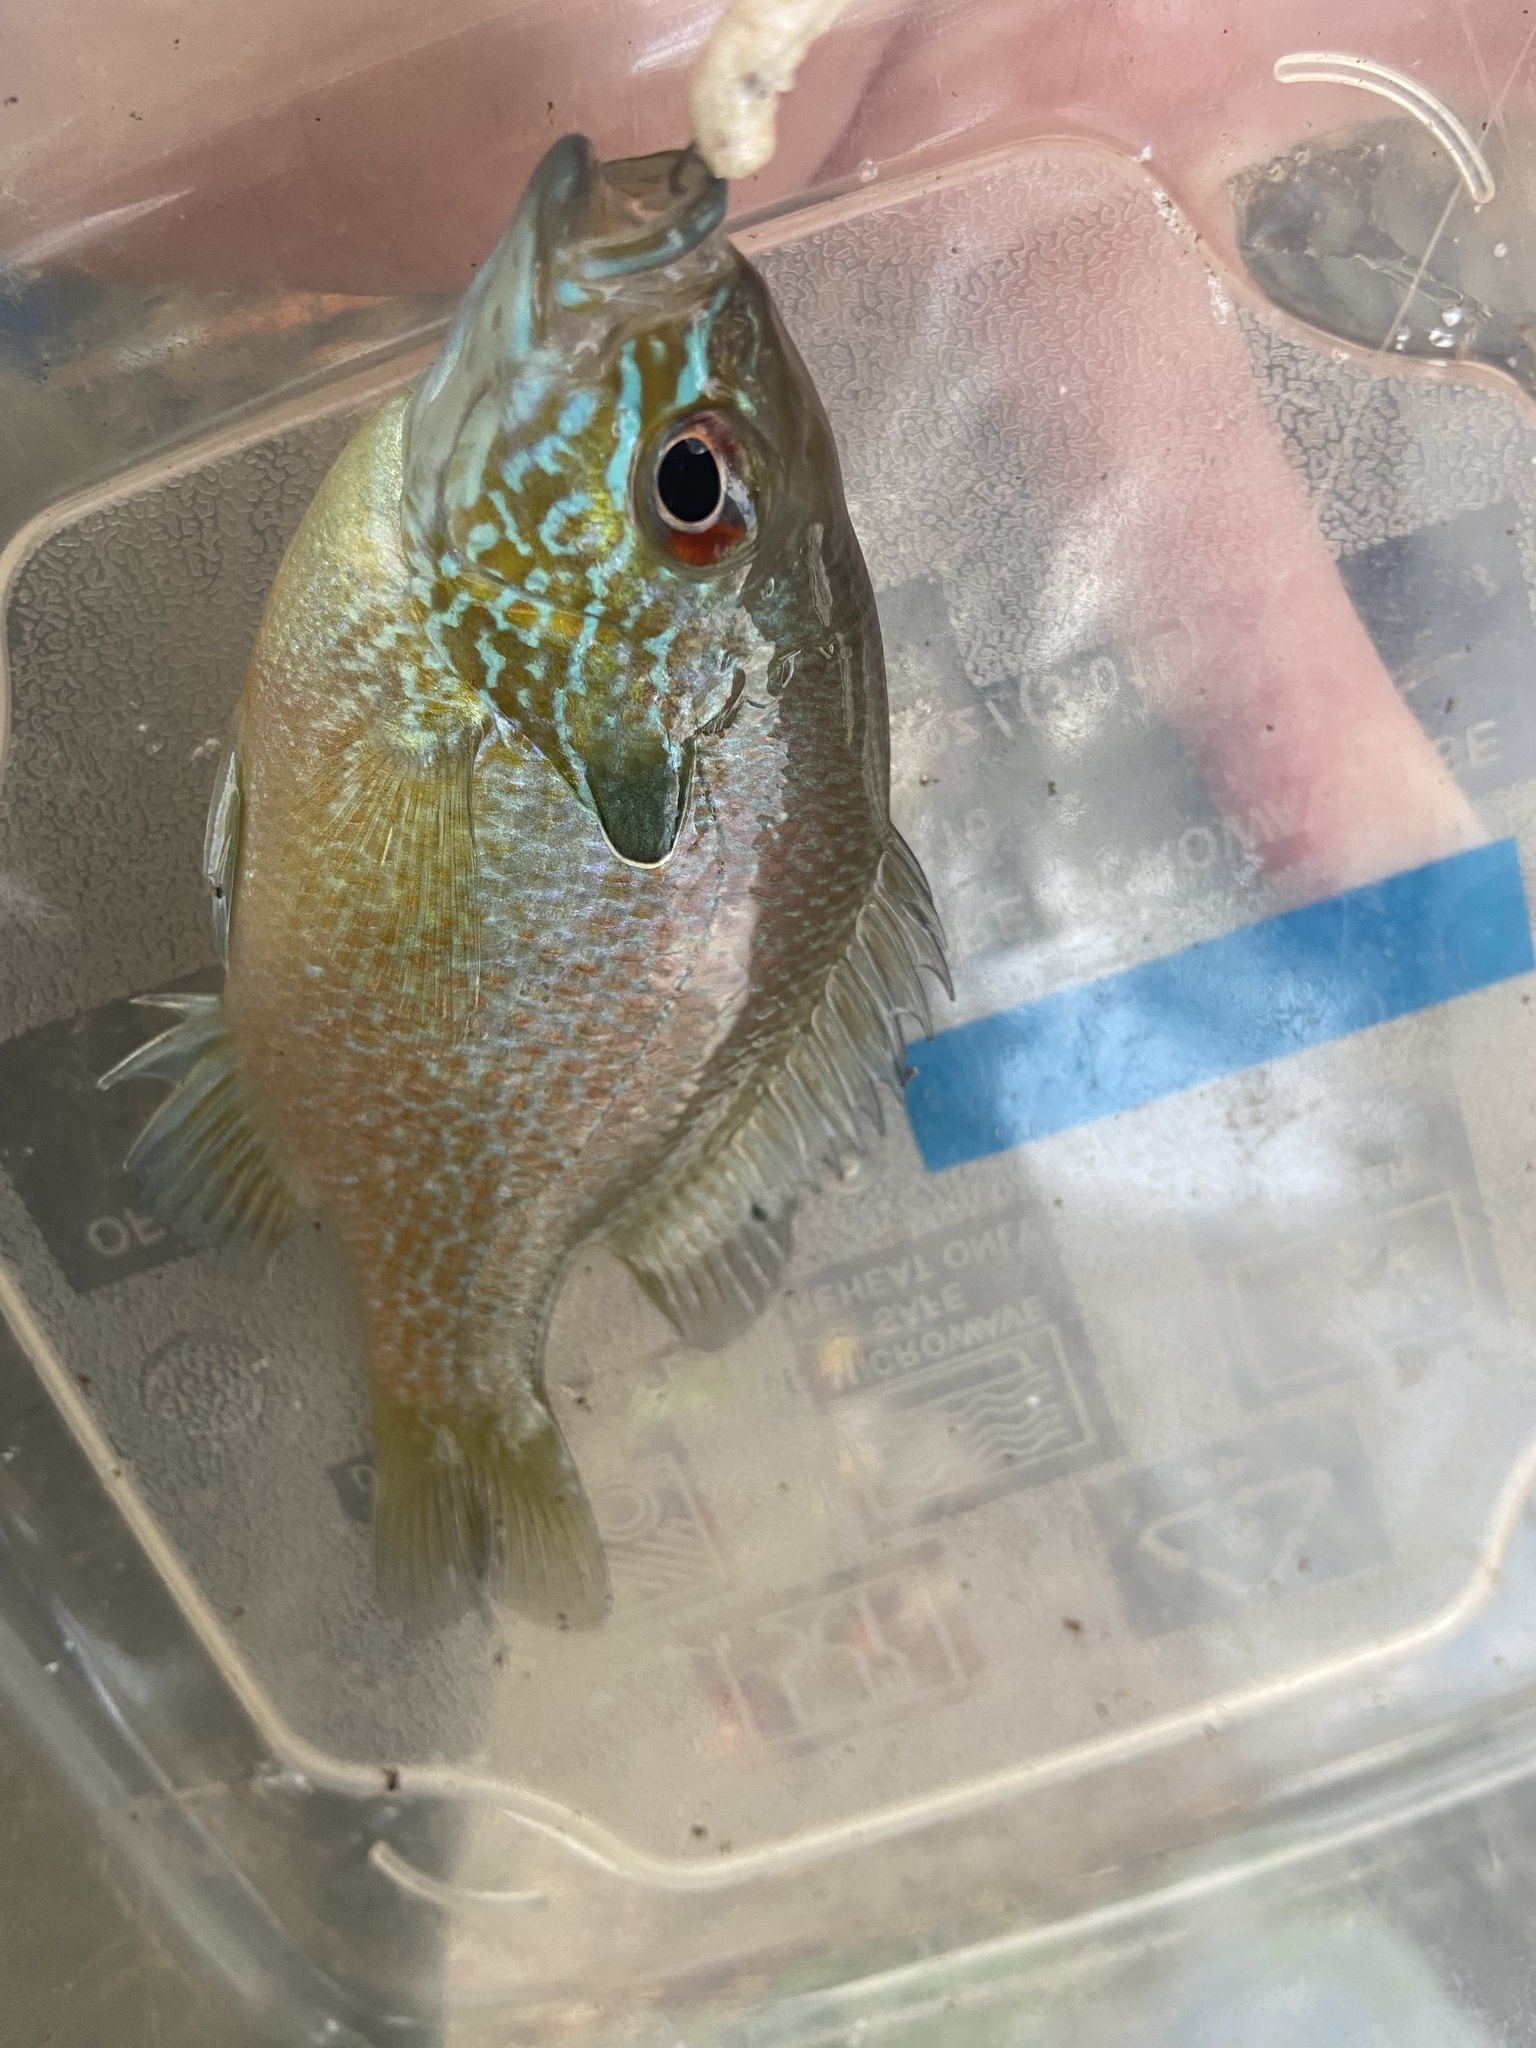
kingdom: Animalia
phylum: Chordata
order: Perciformes
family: Centrarchidae
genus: Lepomis
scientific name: Lepomis aquilensis
